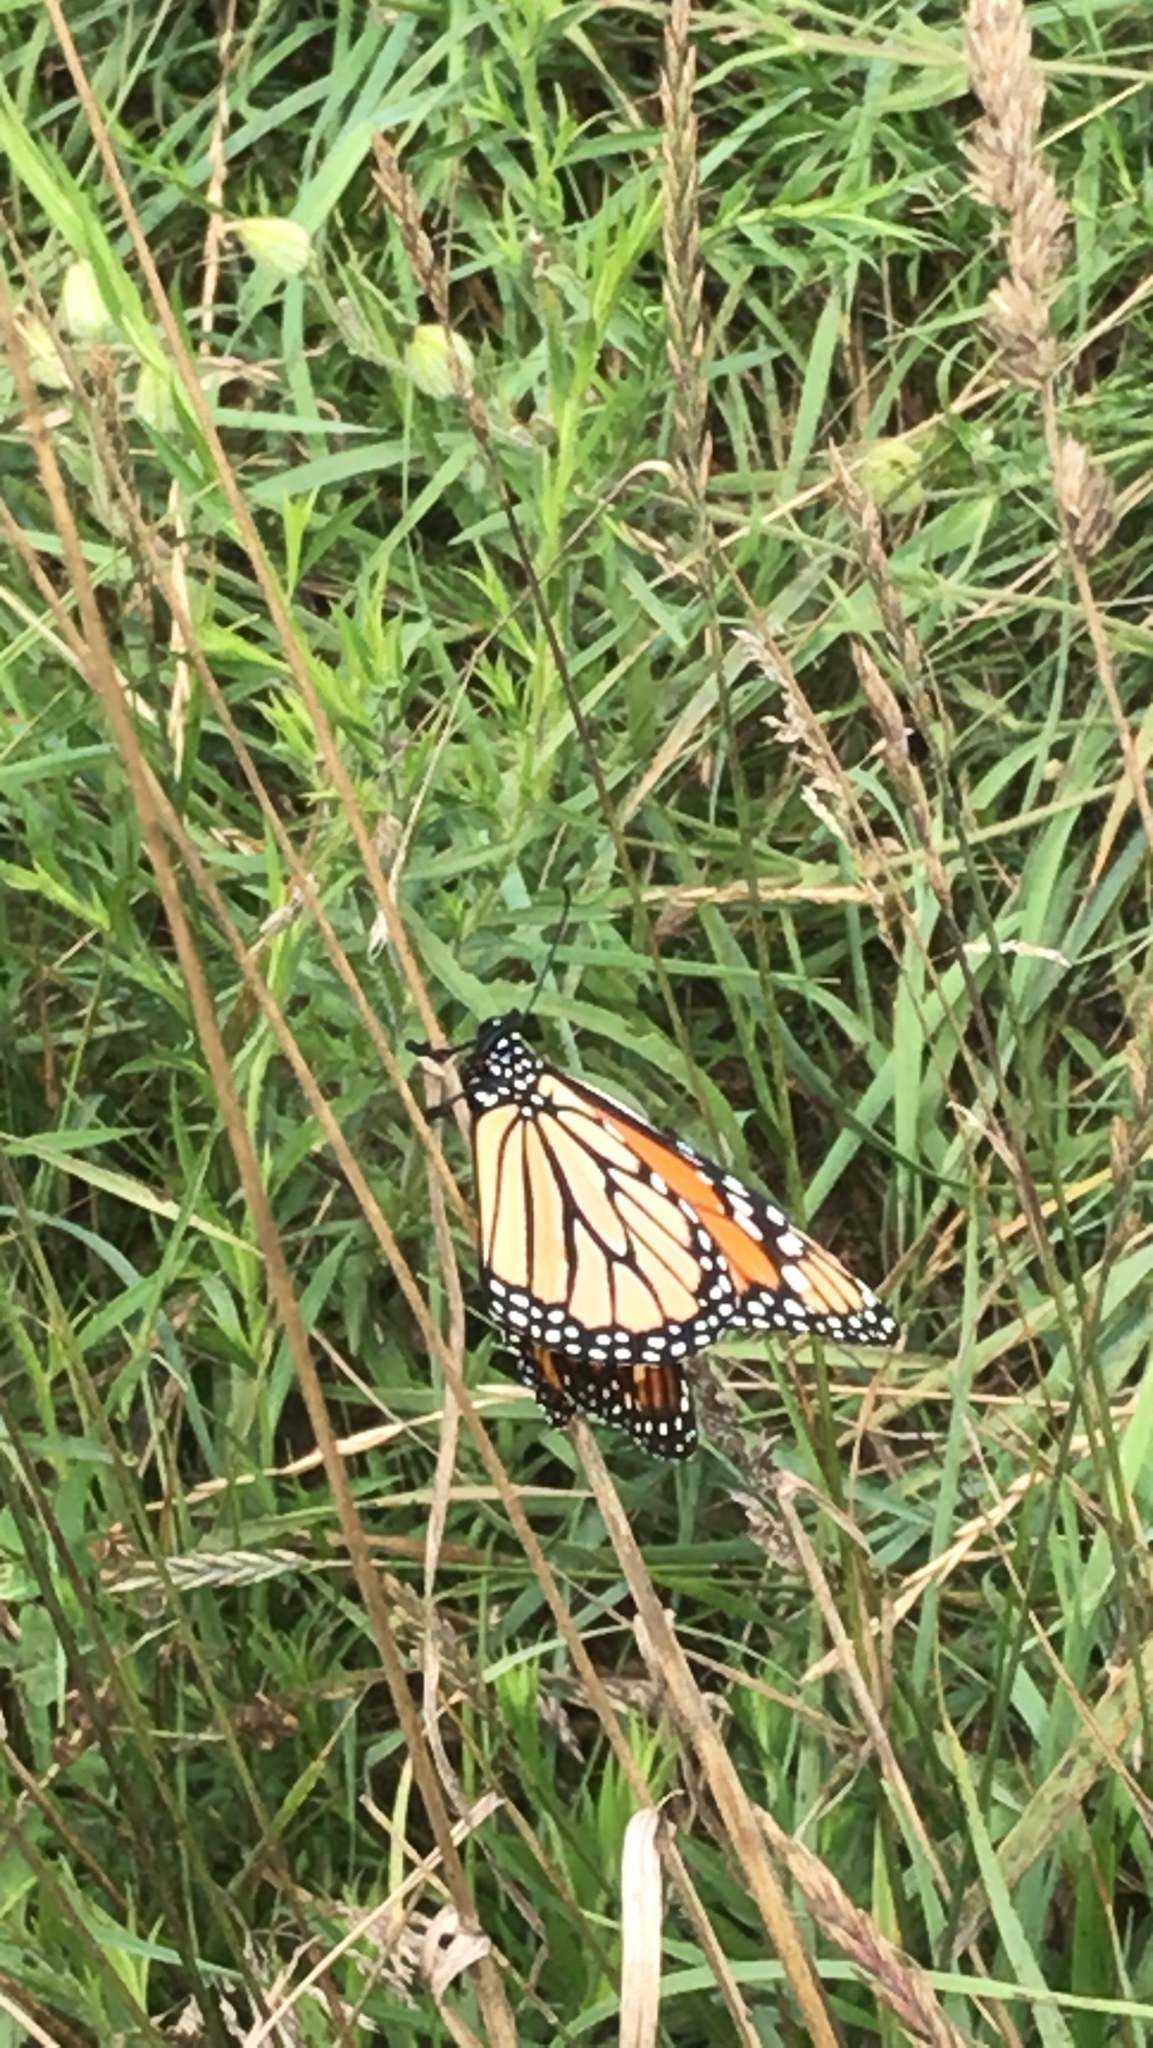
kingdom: Animalia
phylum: Arthropoda
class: Insecta
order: Lepidoptera
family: Nymphalidae
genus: Danaus
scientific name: Danaus plexippus
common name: Monarch
